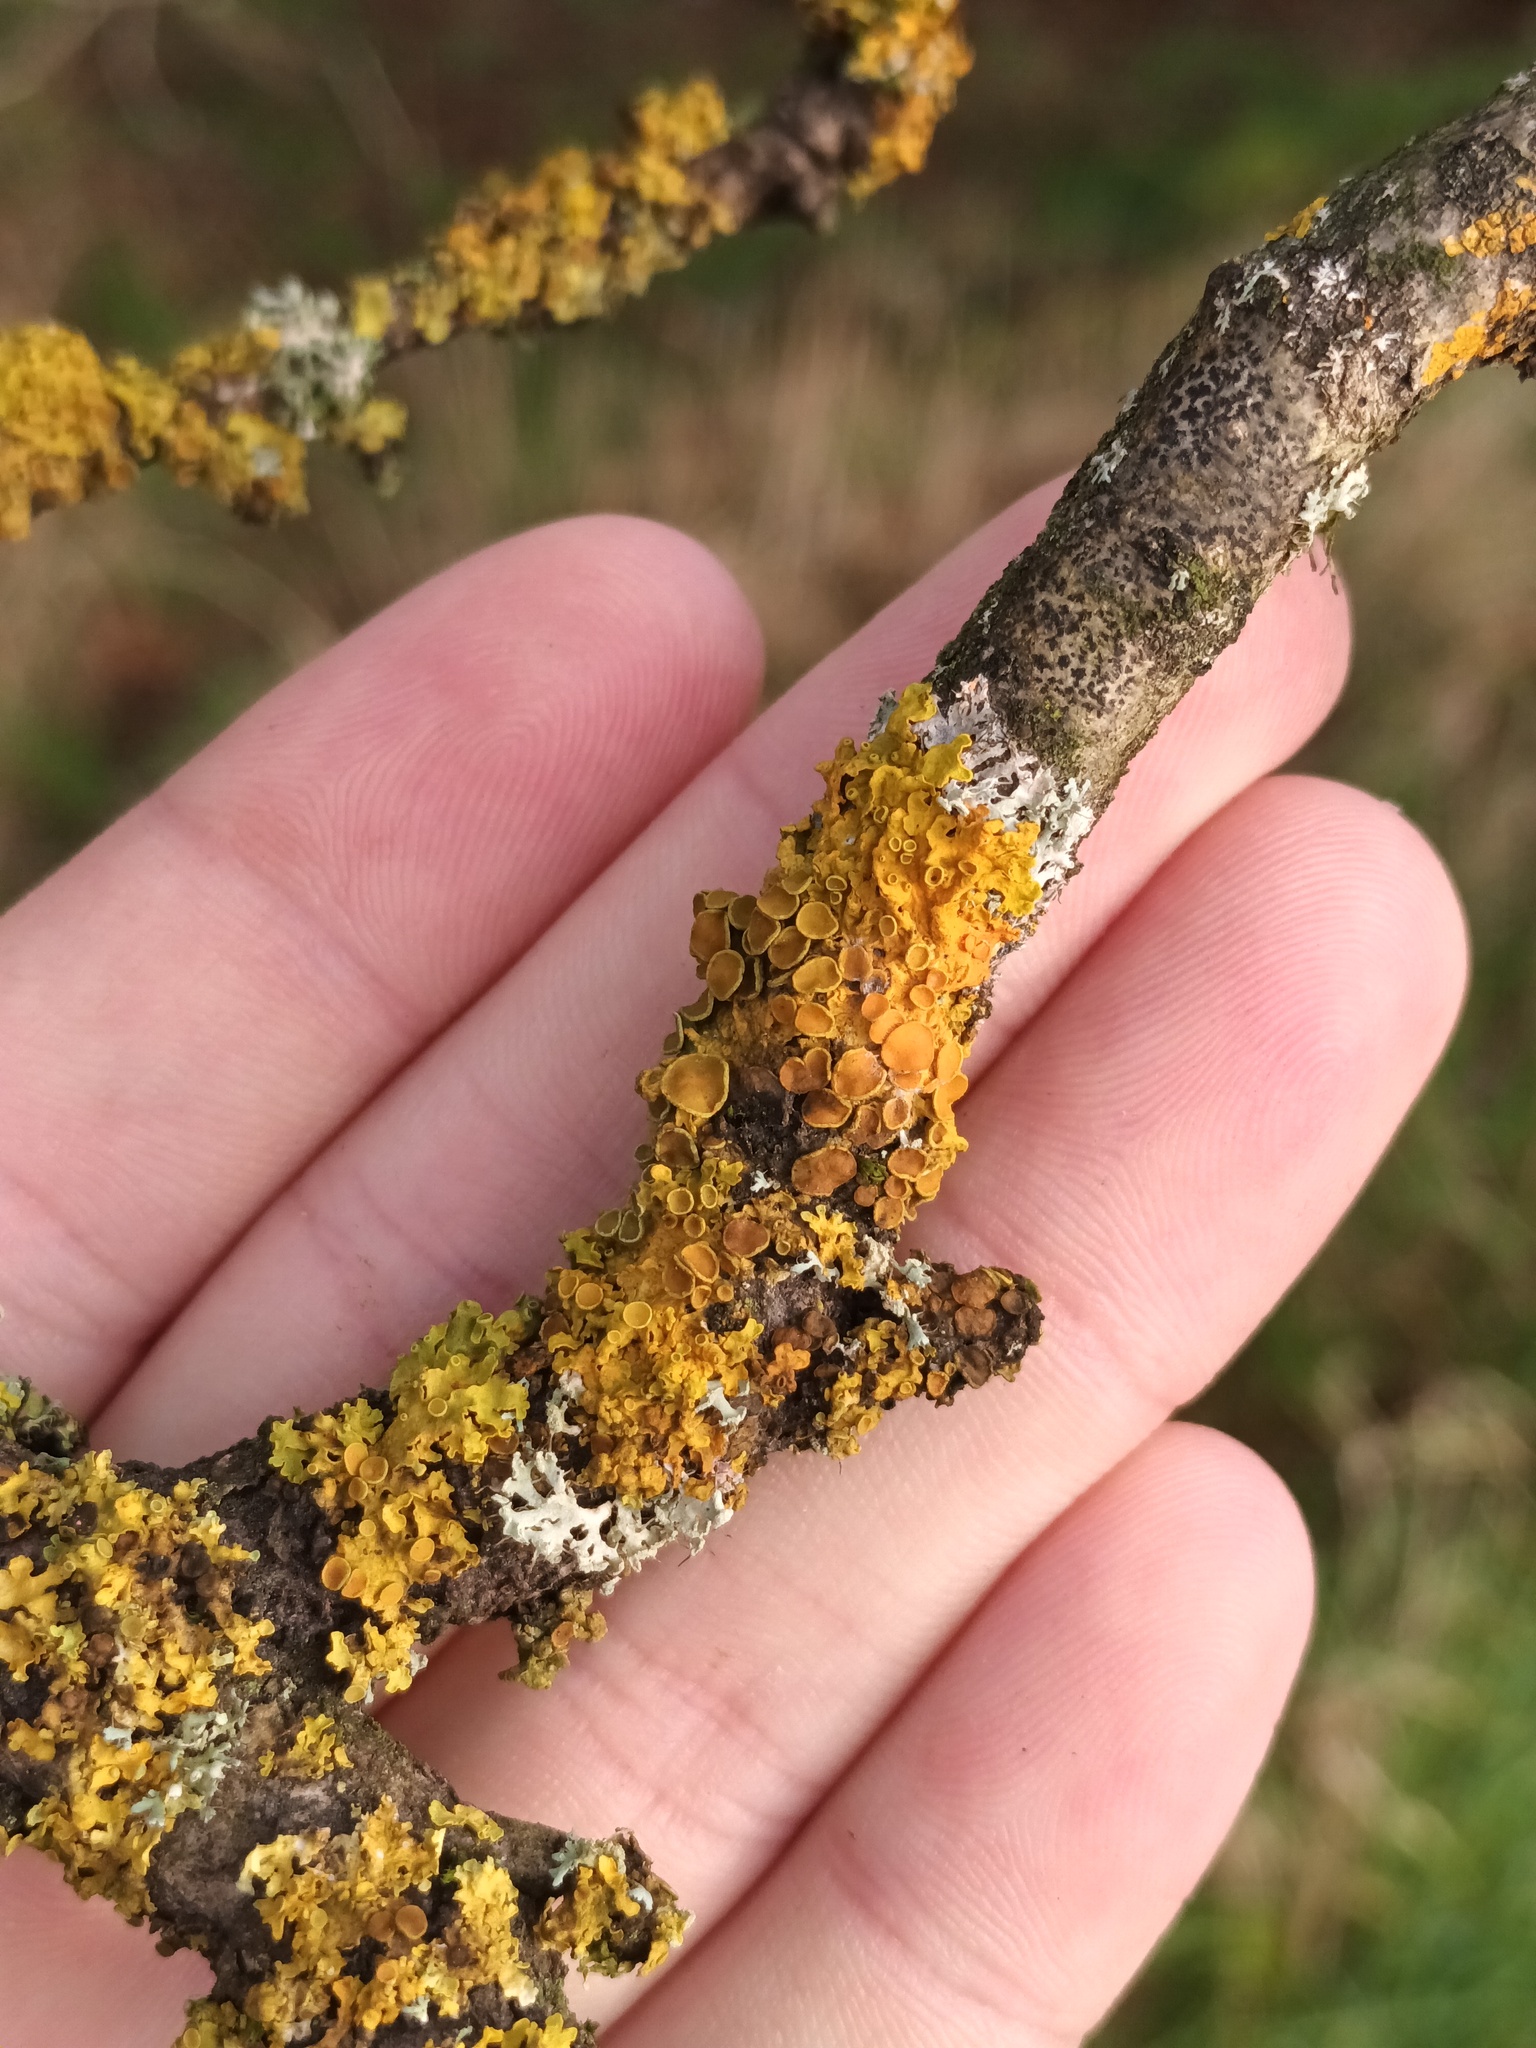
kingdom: Fungi
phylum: Ascomycota
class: Lecanoromycetes
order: Teloschistales
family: Teloschistaceae
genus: Xanthoria
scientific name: Xanthoria parietina
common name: Common orange lichen
